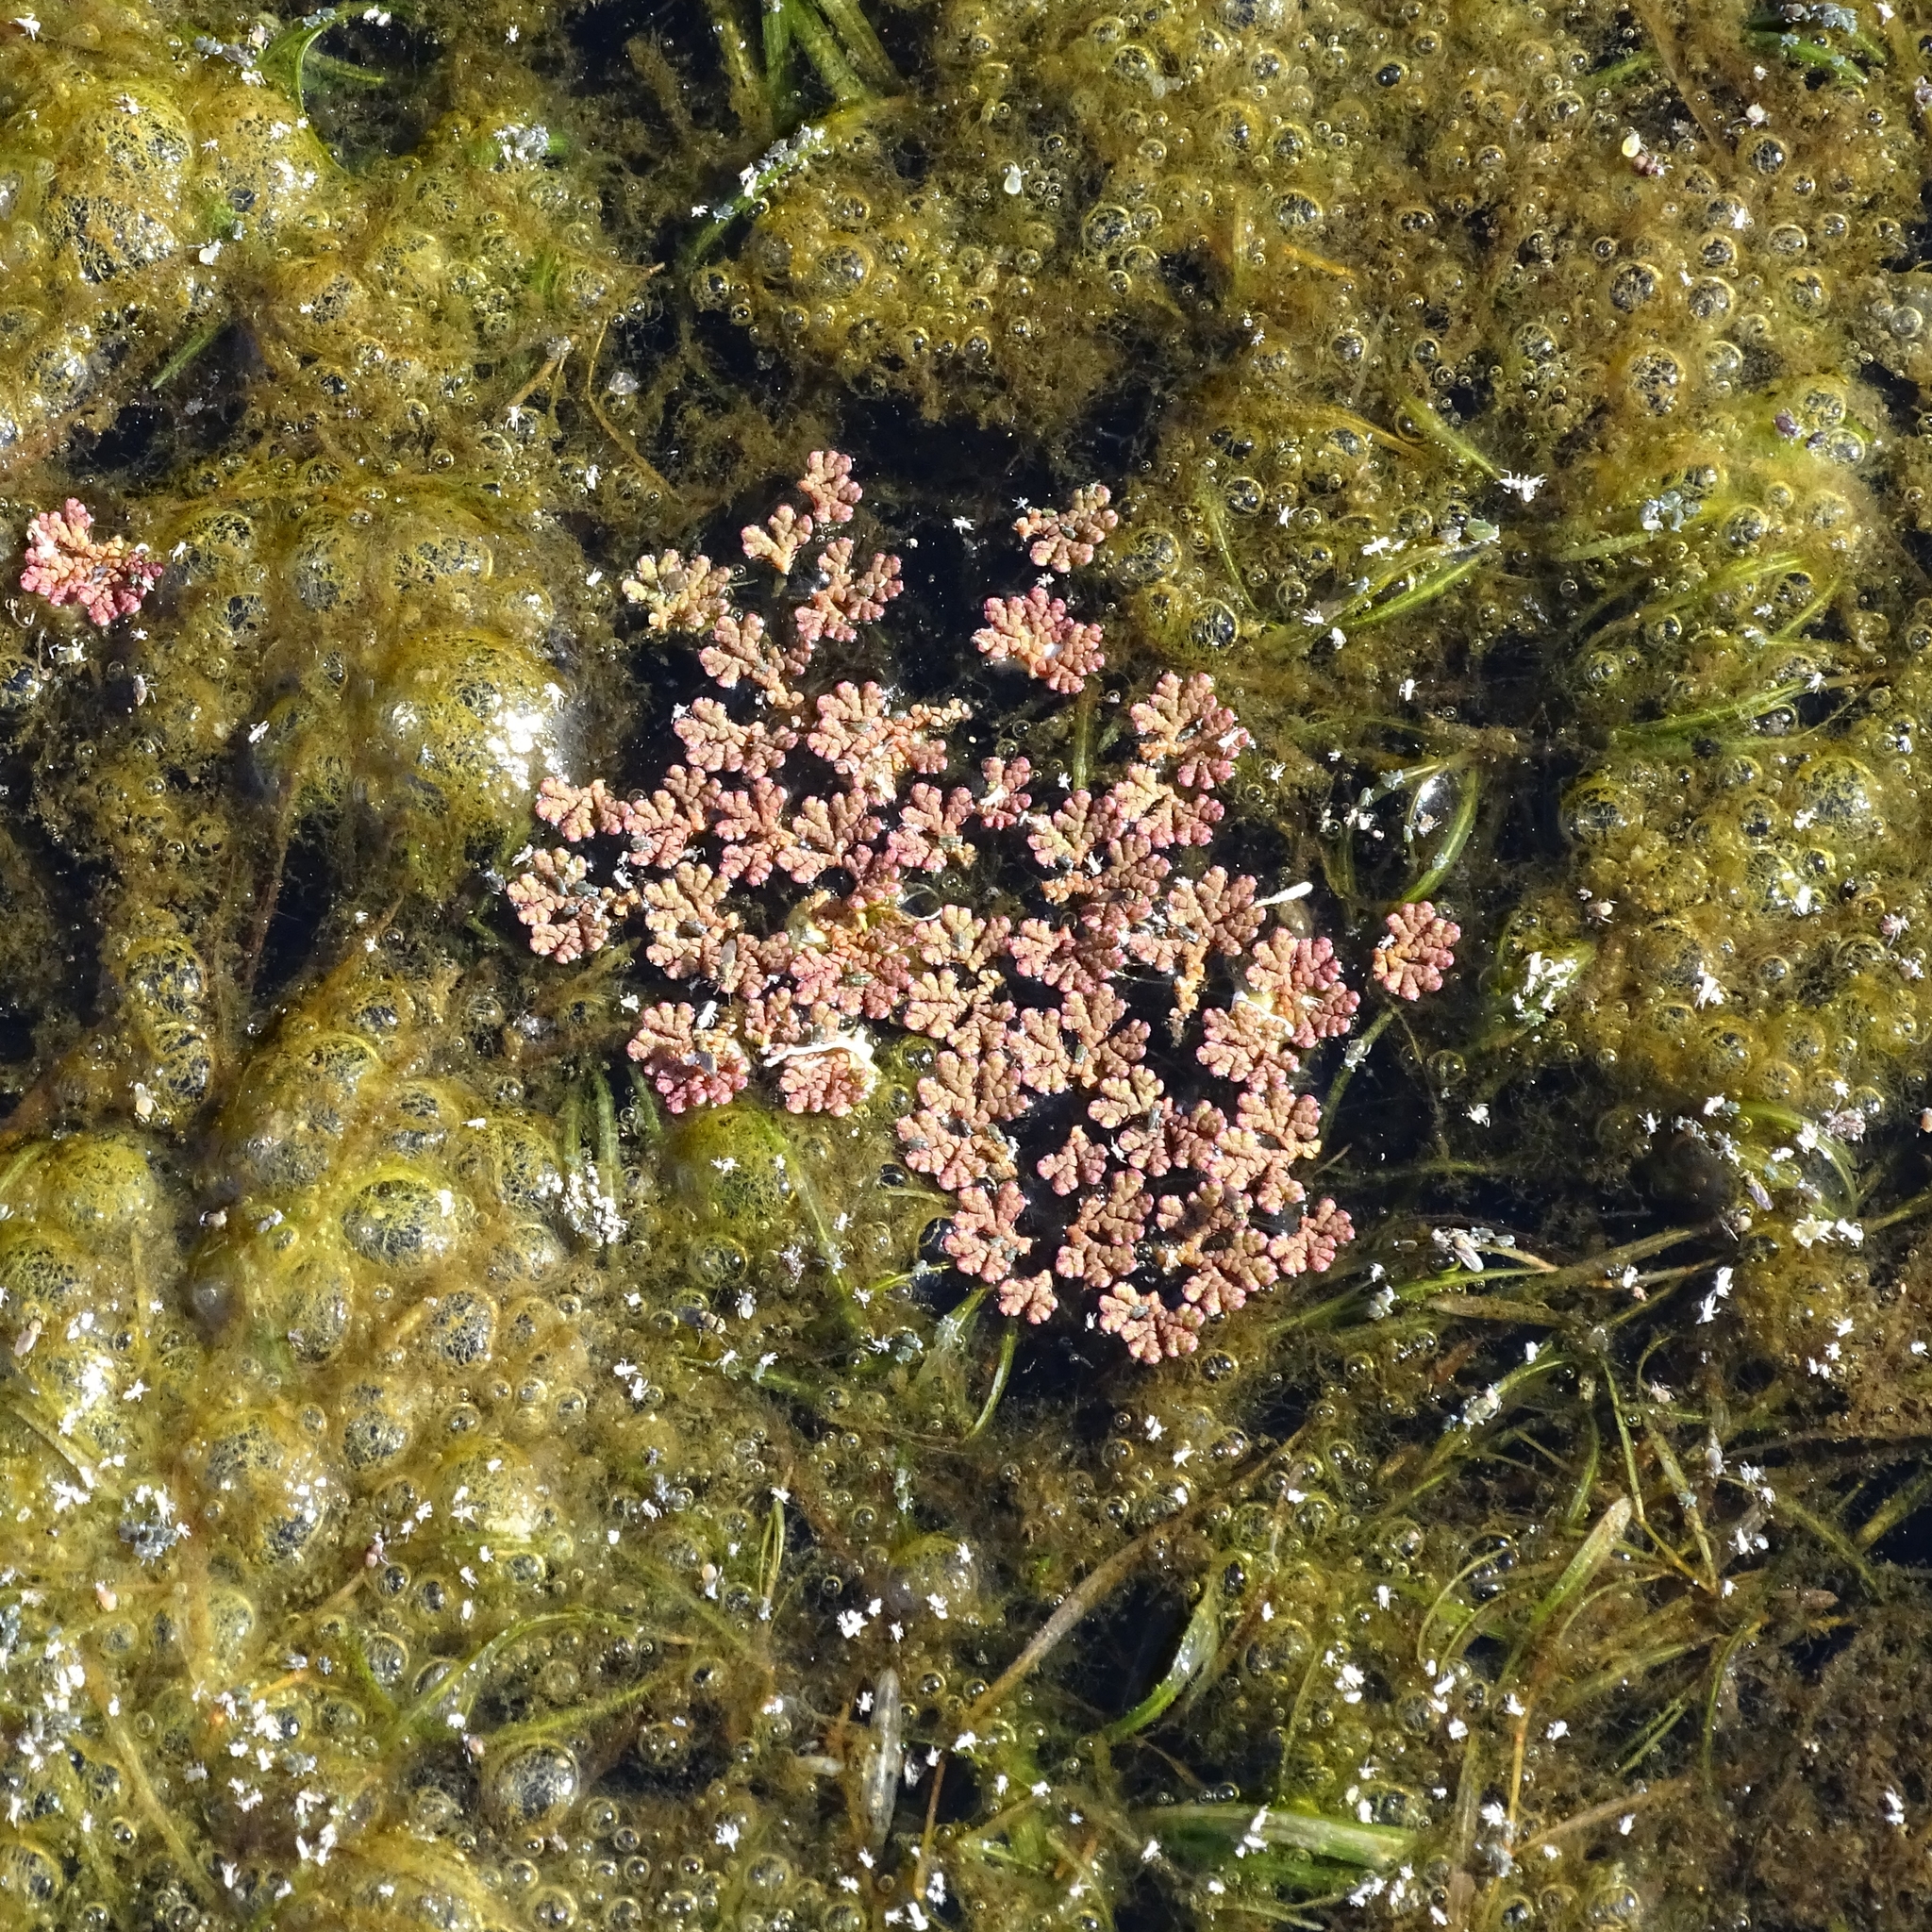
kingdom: Plantae
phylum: Tracheophyta
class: Polypodiopsida
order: Salviniales
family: Salviniaceae
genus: Azolla
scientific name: Azolla filiculoides
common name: Water fern
